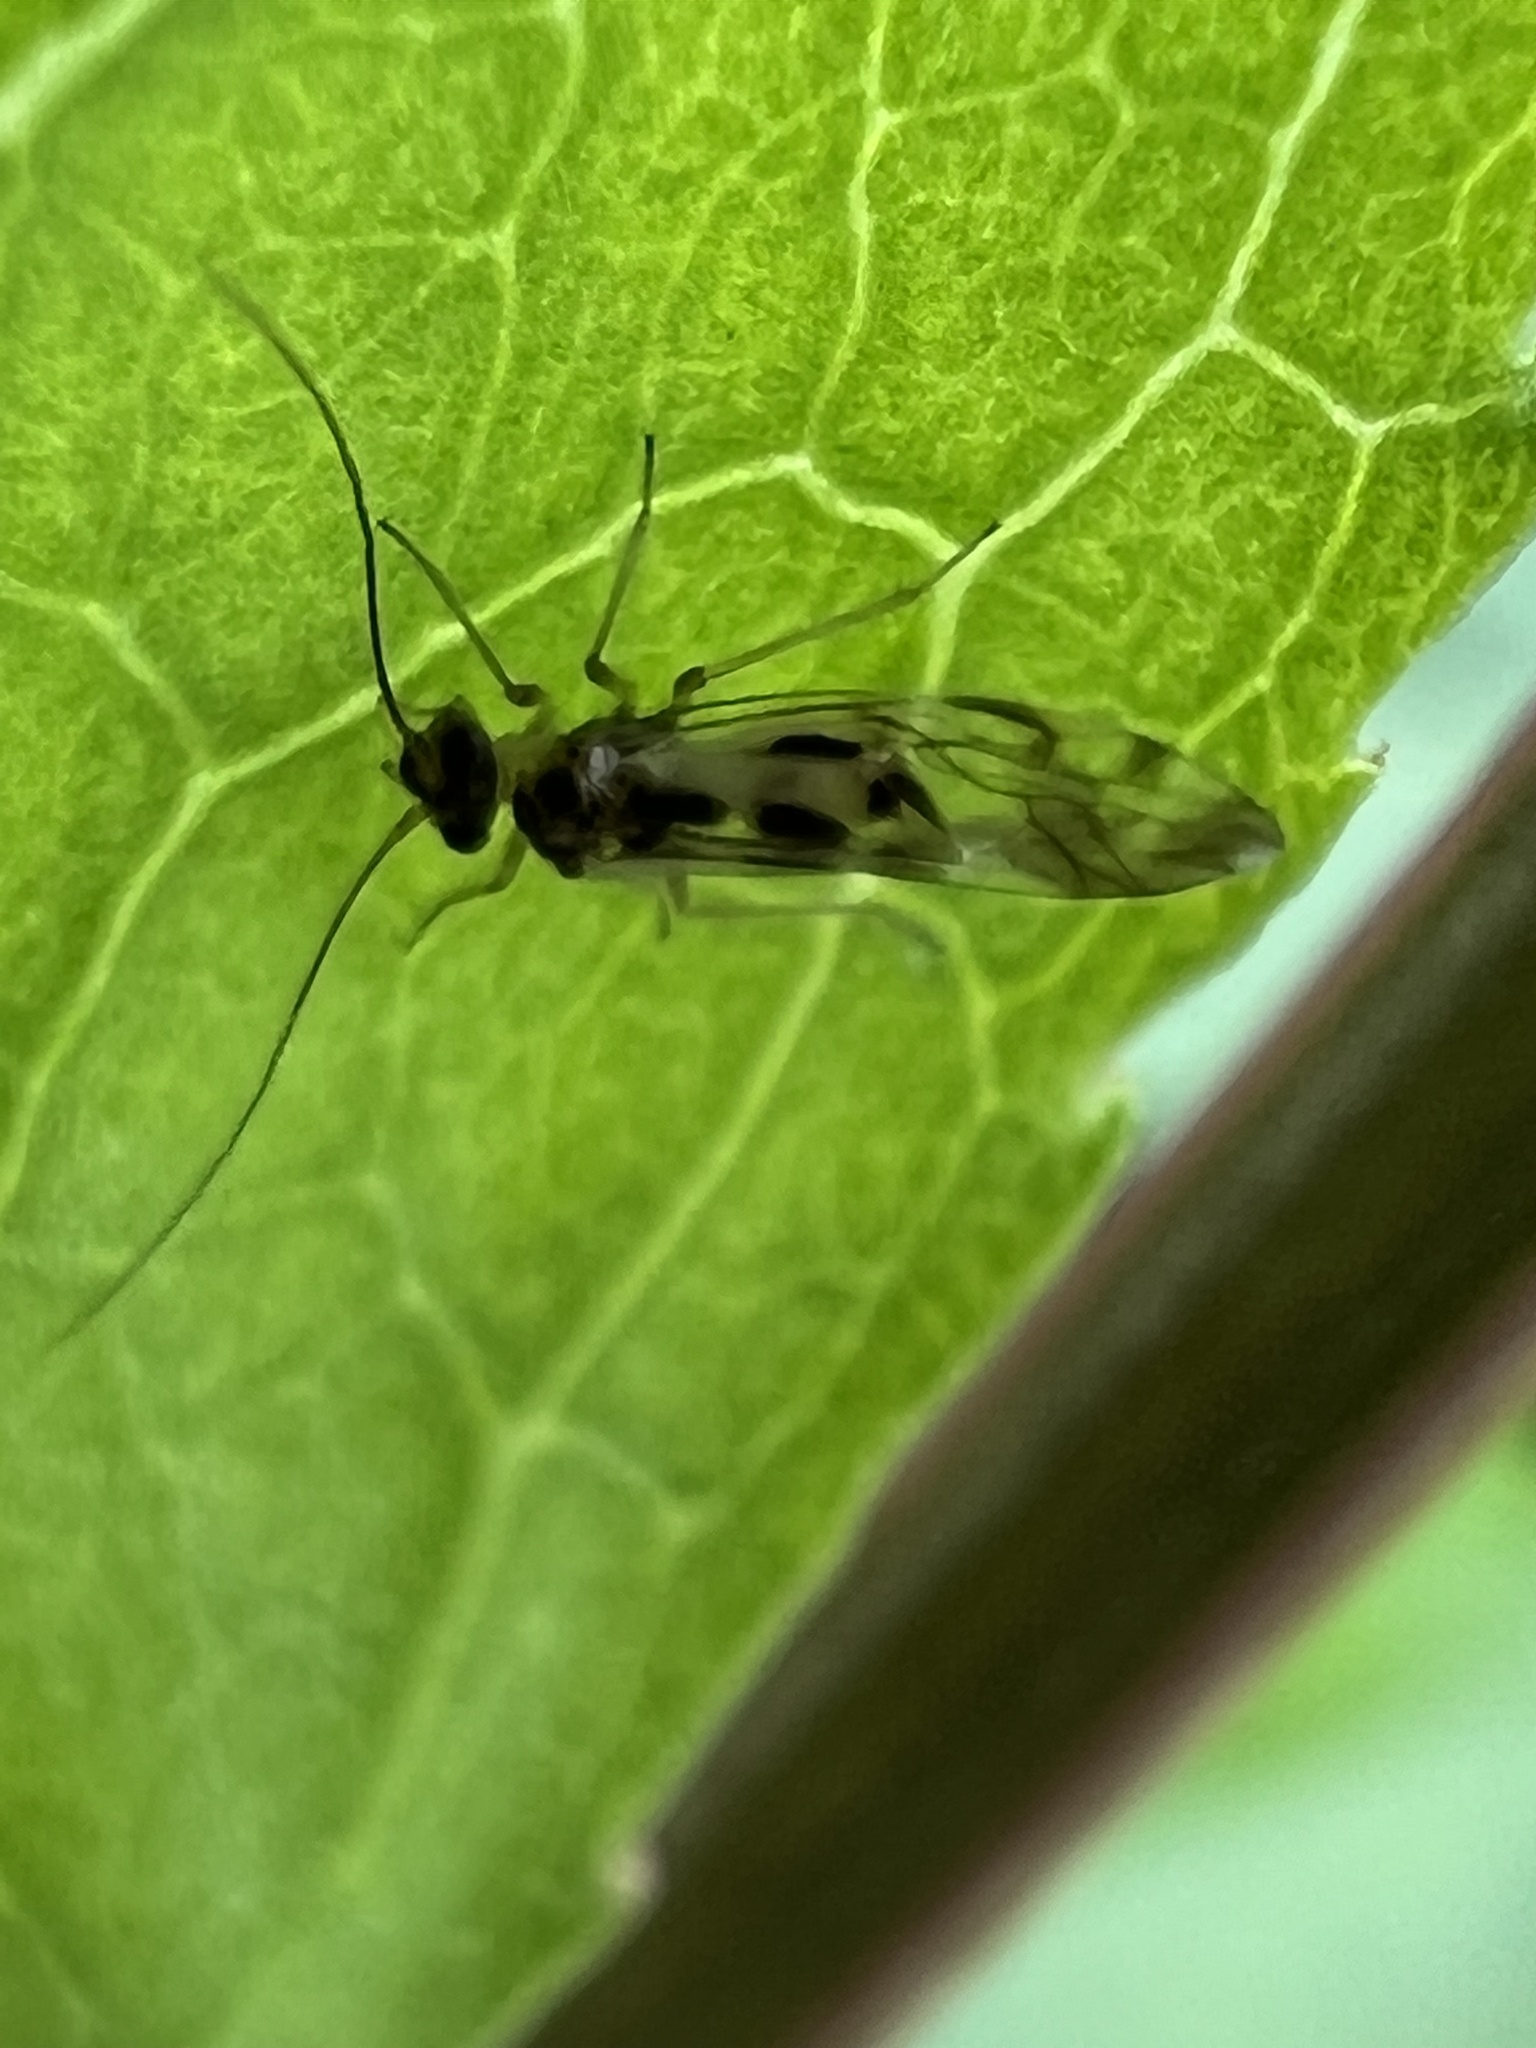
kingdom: Animalia
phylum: Arthropoda
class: Insecta
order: Psocodea
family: Stenopsocidae
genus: Graphopsocus
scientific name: Graphopsocus cruciatus
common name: Lizard bark louse
